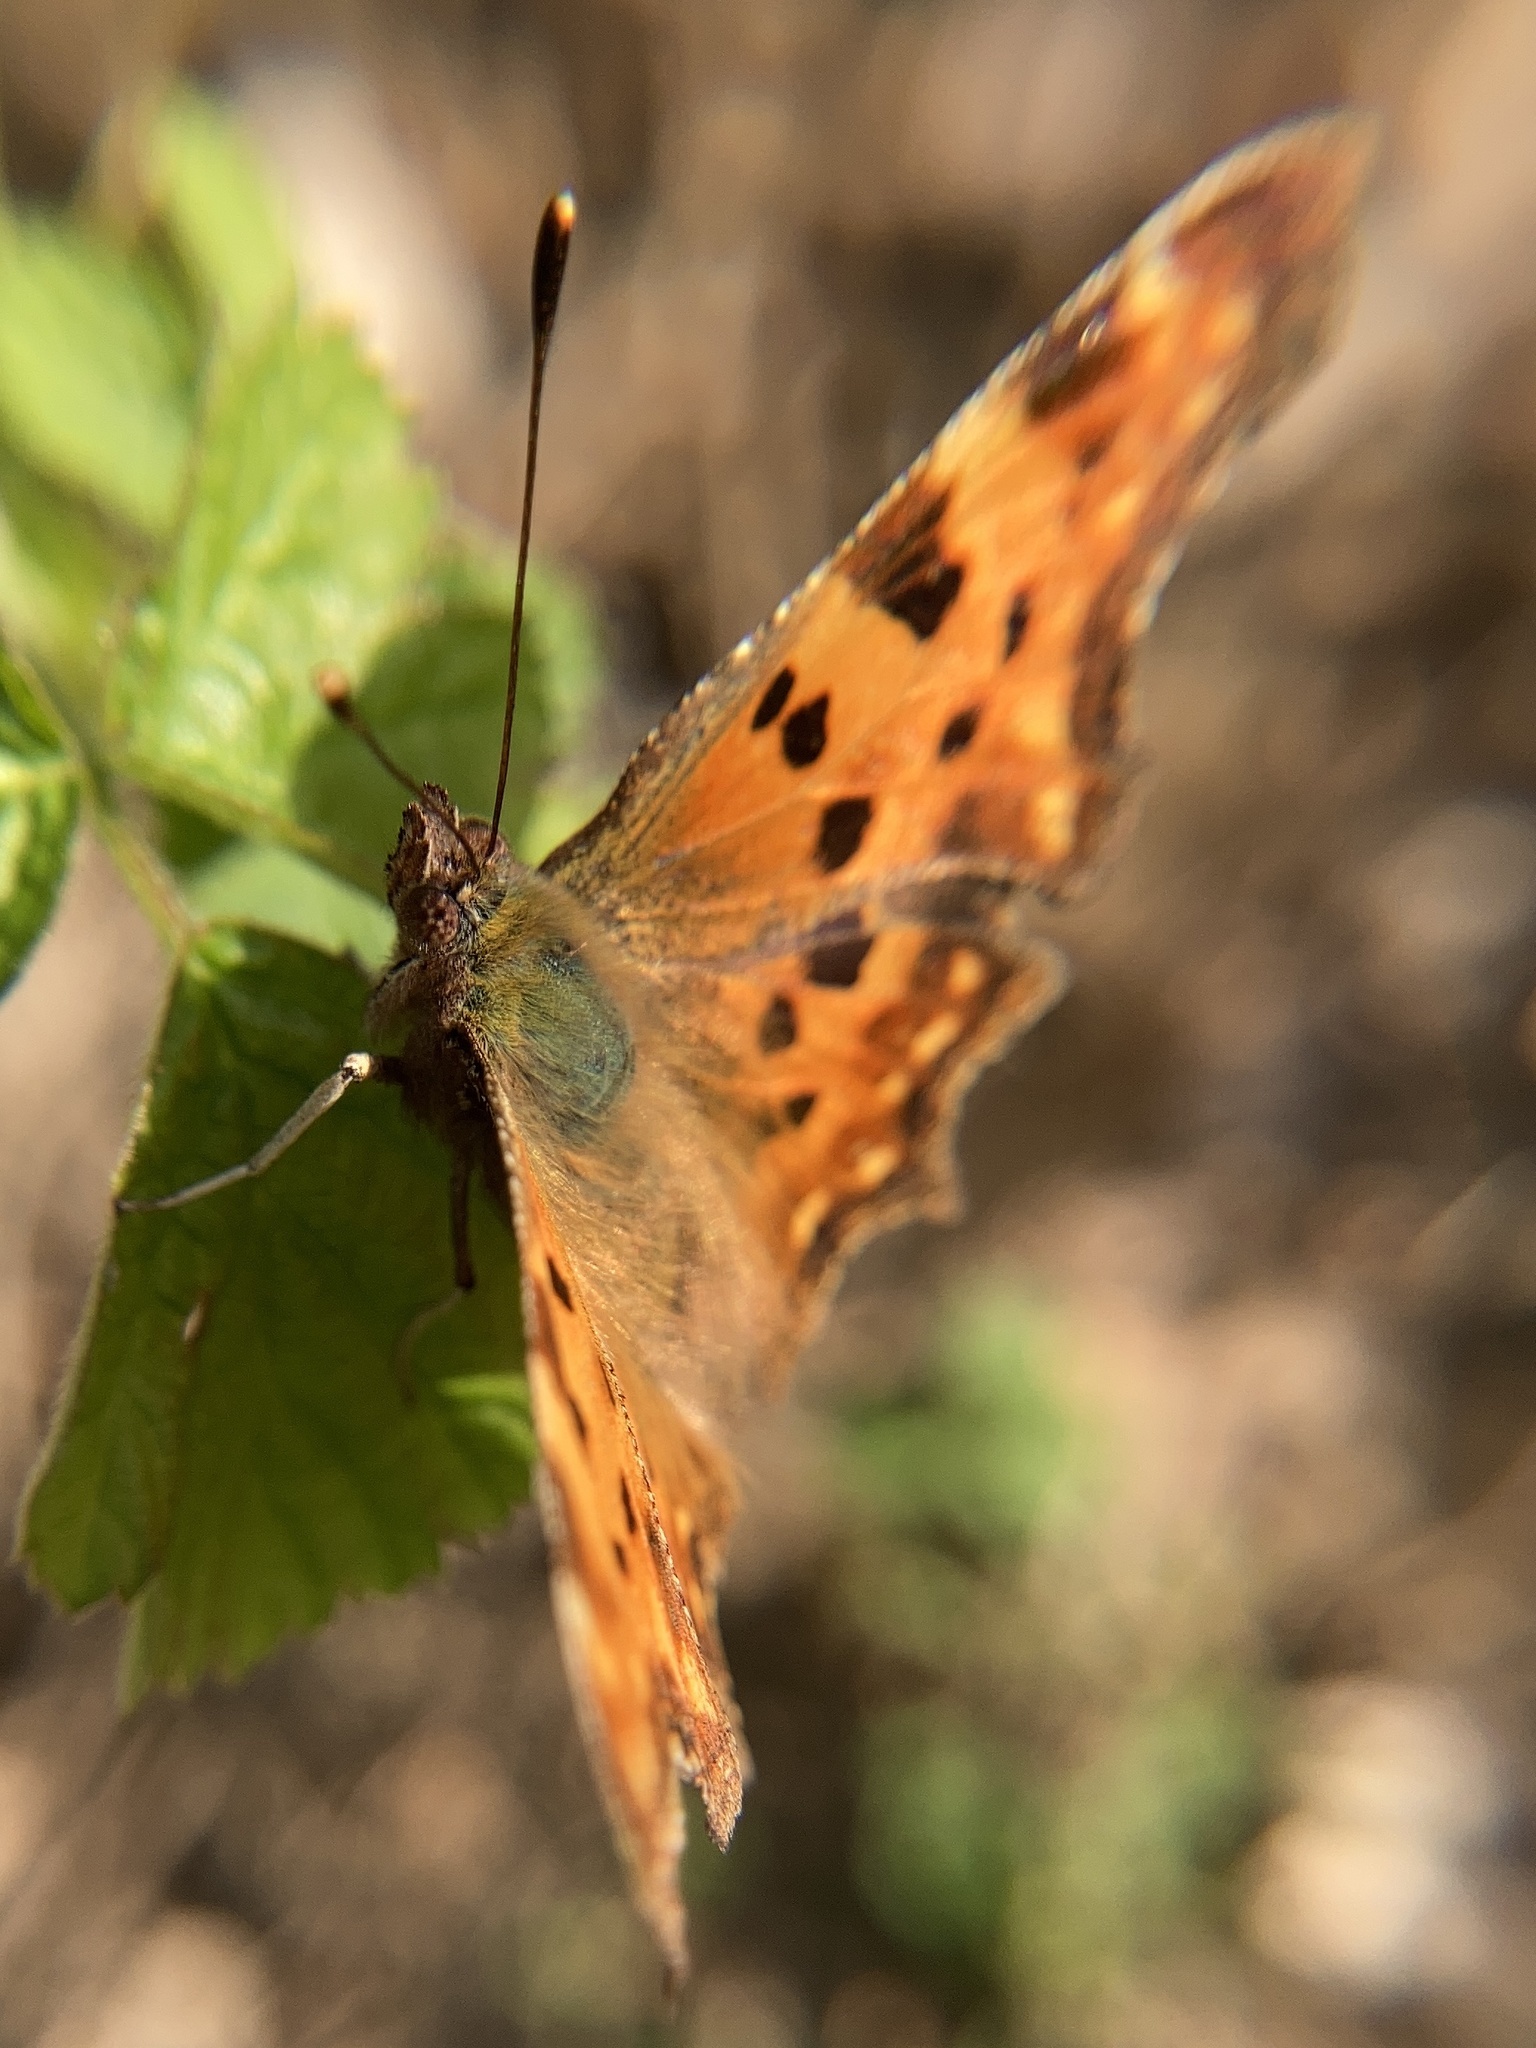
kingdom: Animalia
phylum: Arthropoda
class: Insecta
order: Lepidoptera
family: Nymphalidae
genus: Polygonia
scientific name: Polygonia c-album
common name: Comma
